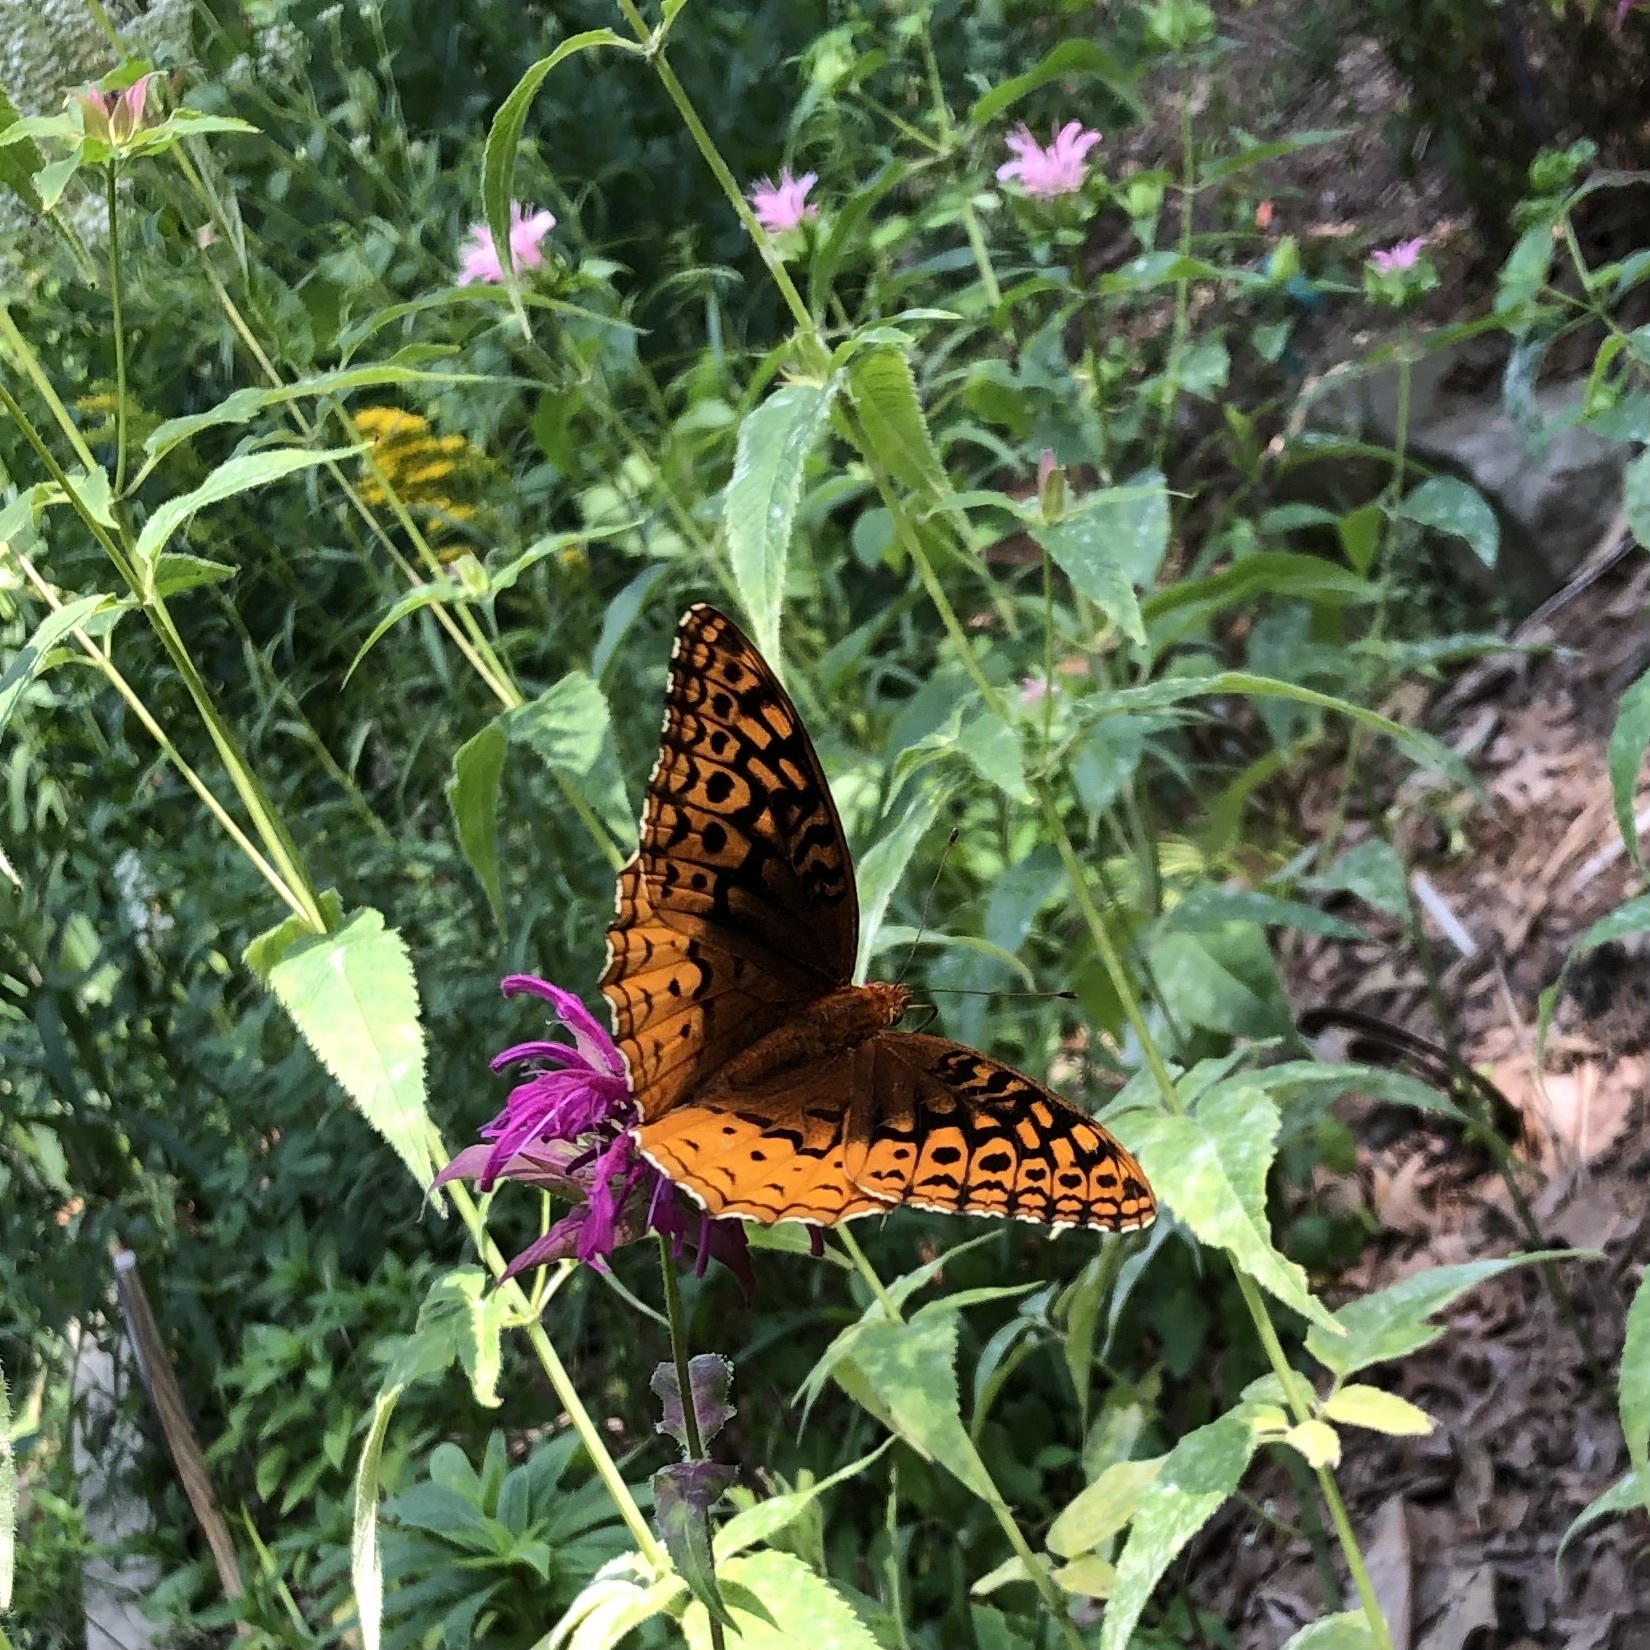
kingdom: Animalia
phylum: Arthropoda
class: Insecta
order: Lepidoptera
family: Nymphalidae
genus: Speyeria
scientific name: Speyeria cybele
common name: Great spangled fritillary
